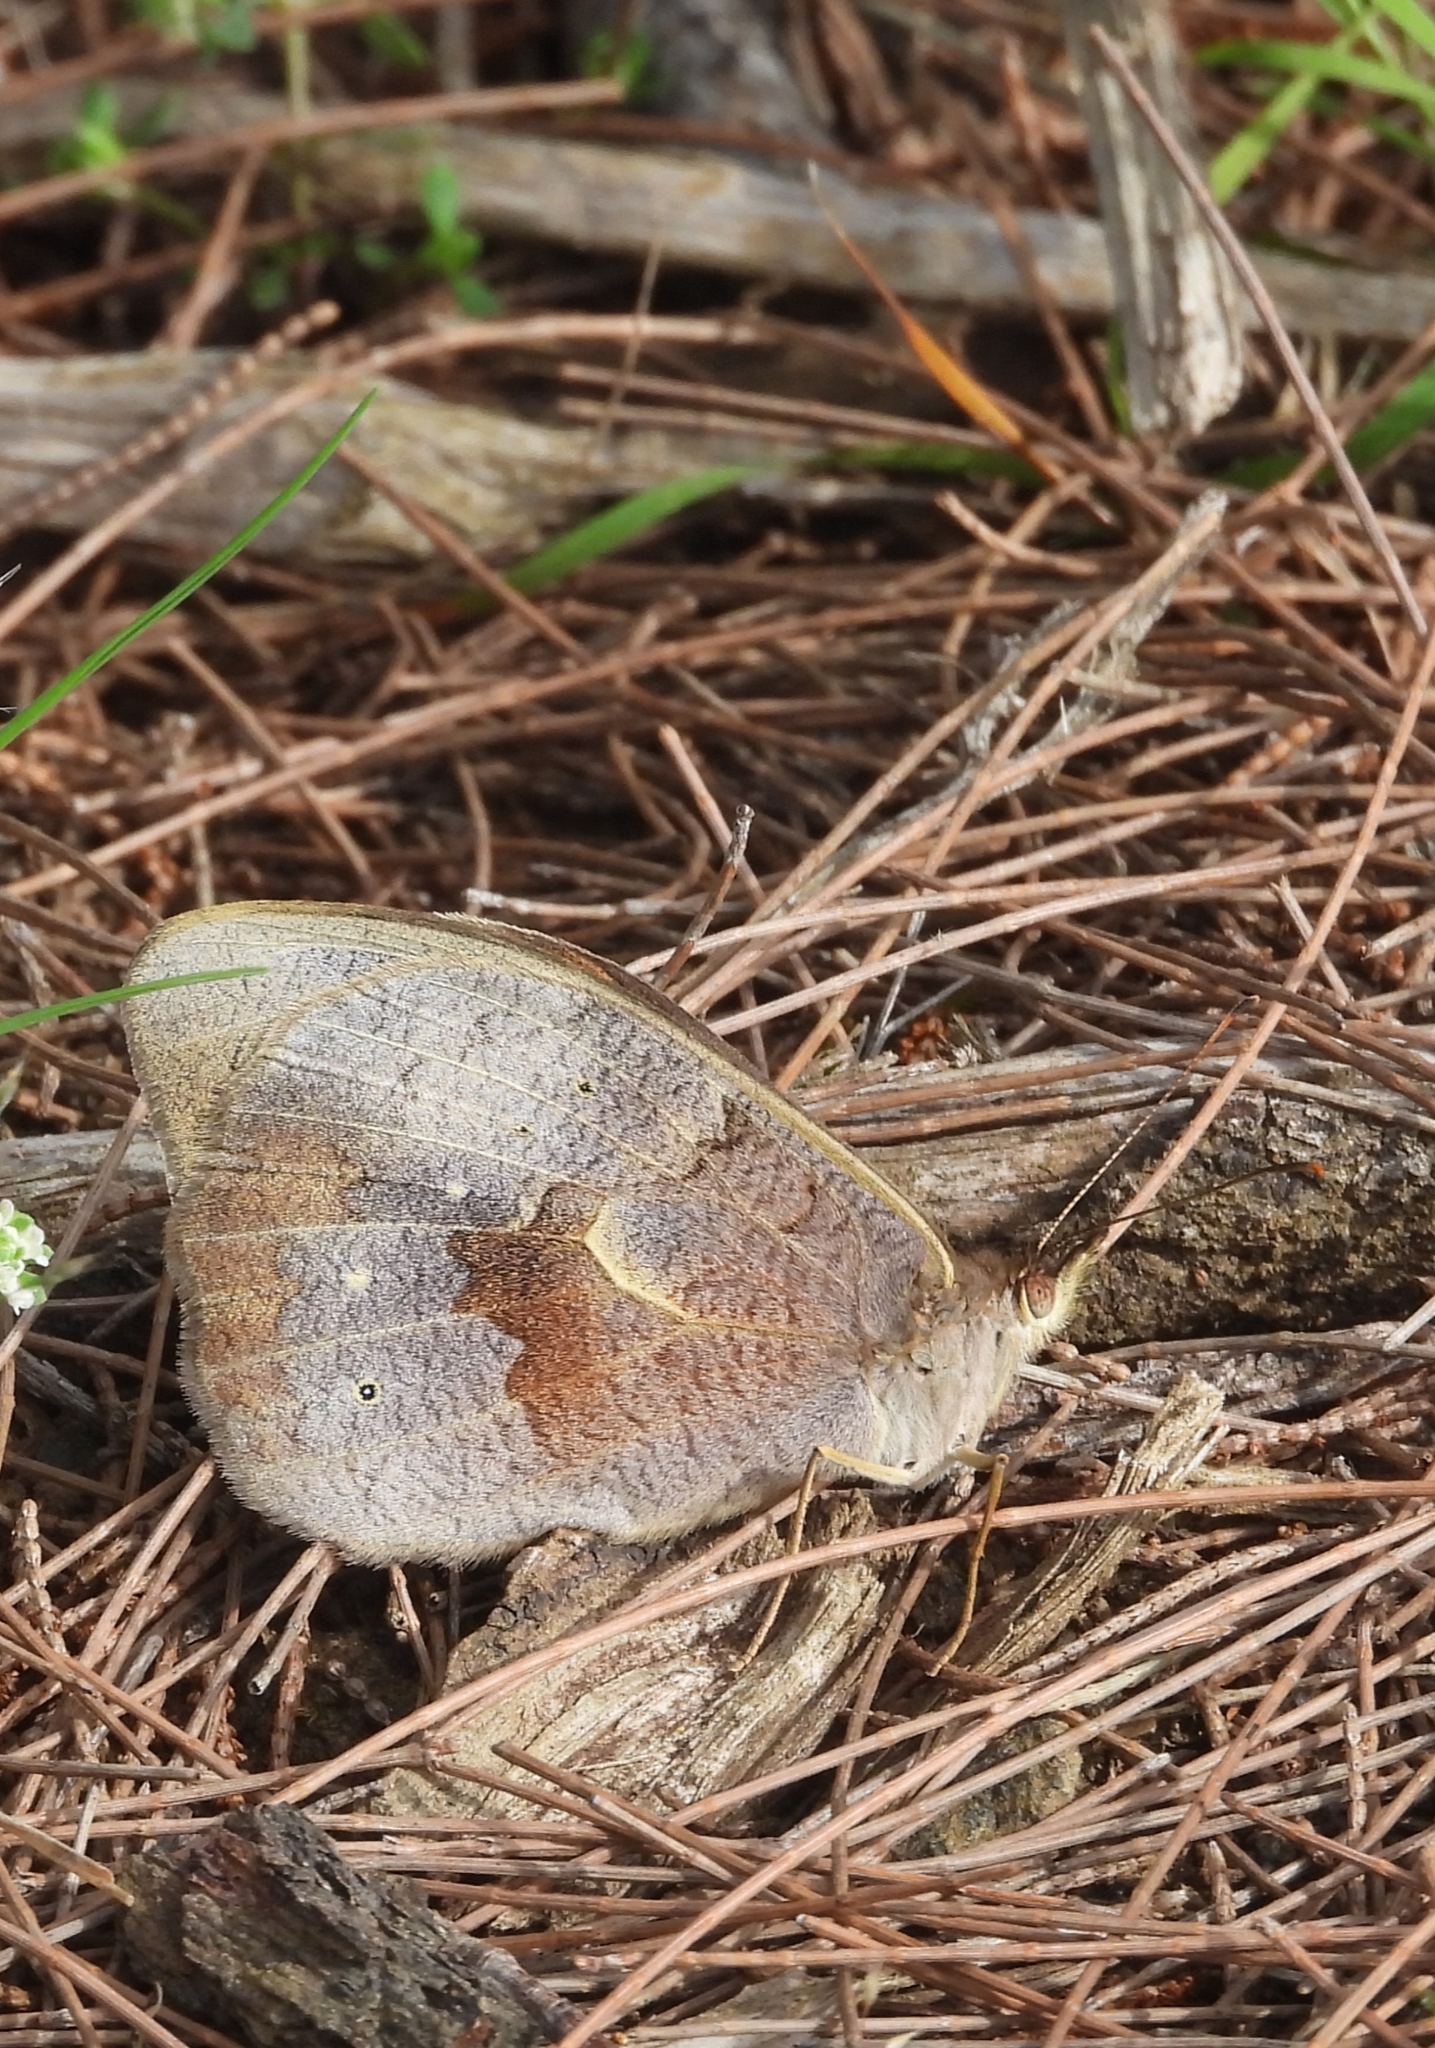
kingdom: Animalia
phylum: Arthropoda
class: Insecta
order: Lepidoptera
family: Nymphalidae
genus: Heteronympha
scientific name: Heteronympha merope
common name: Common brown
